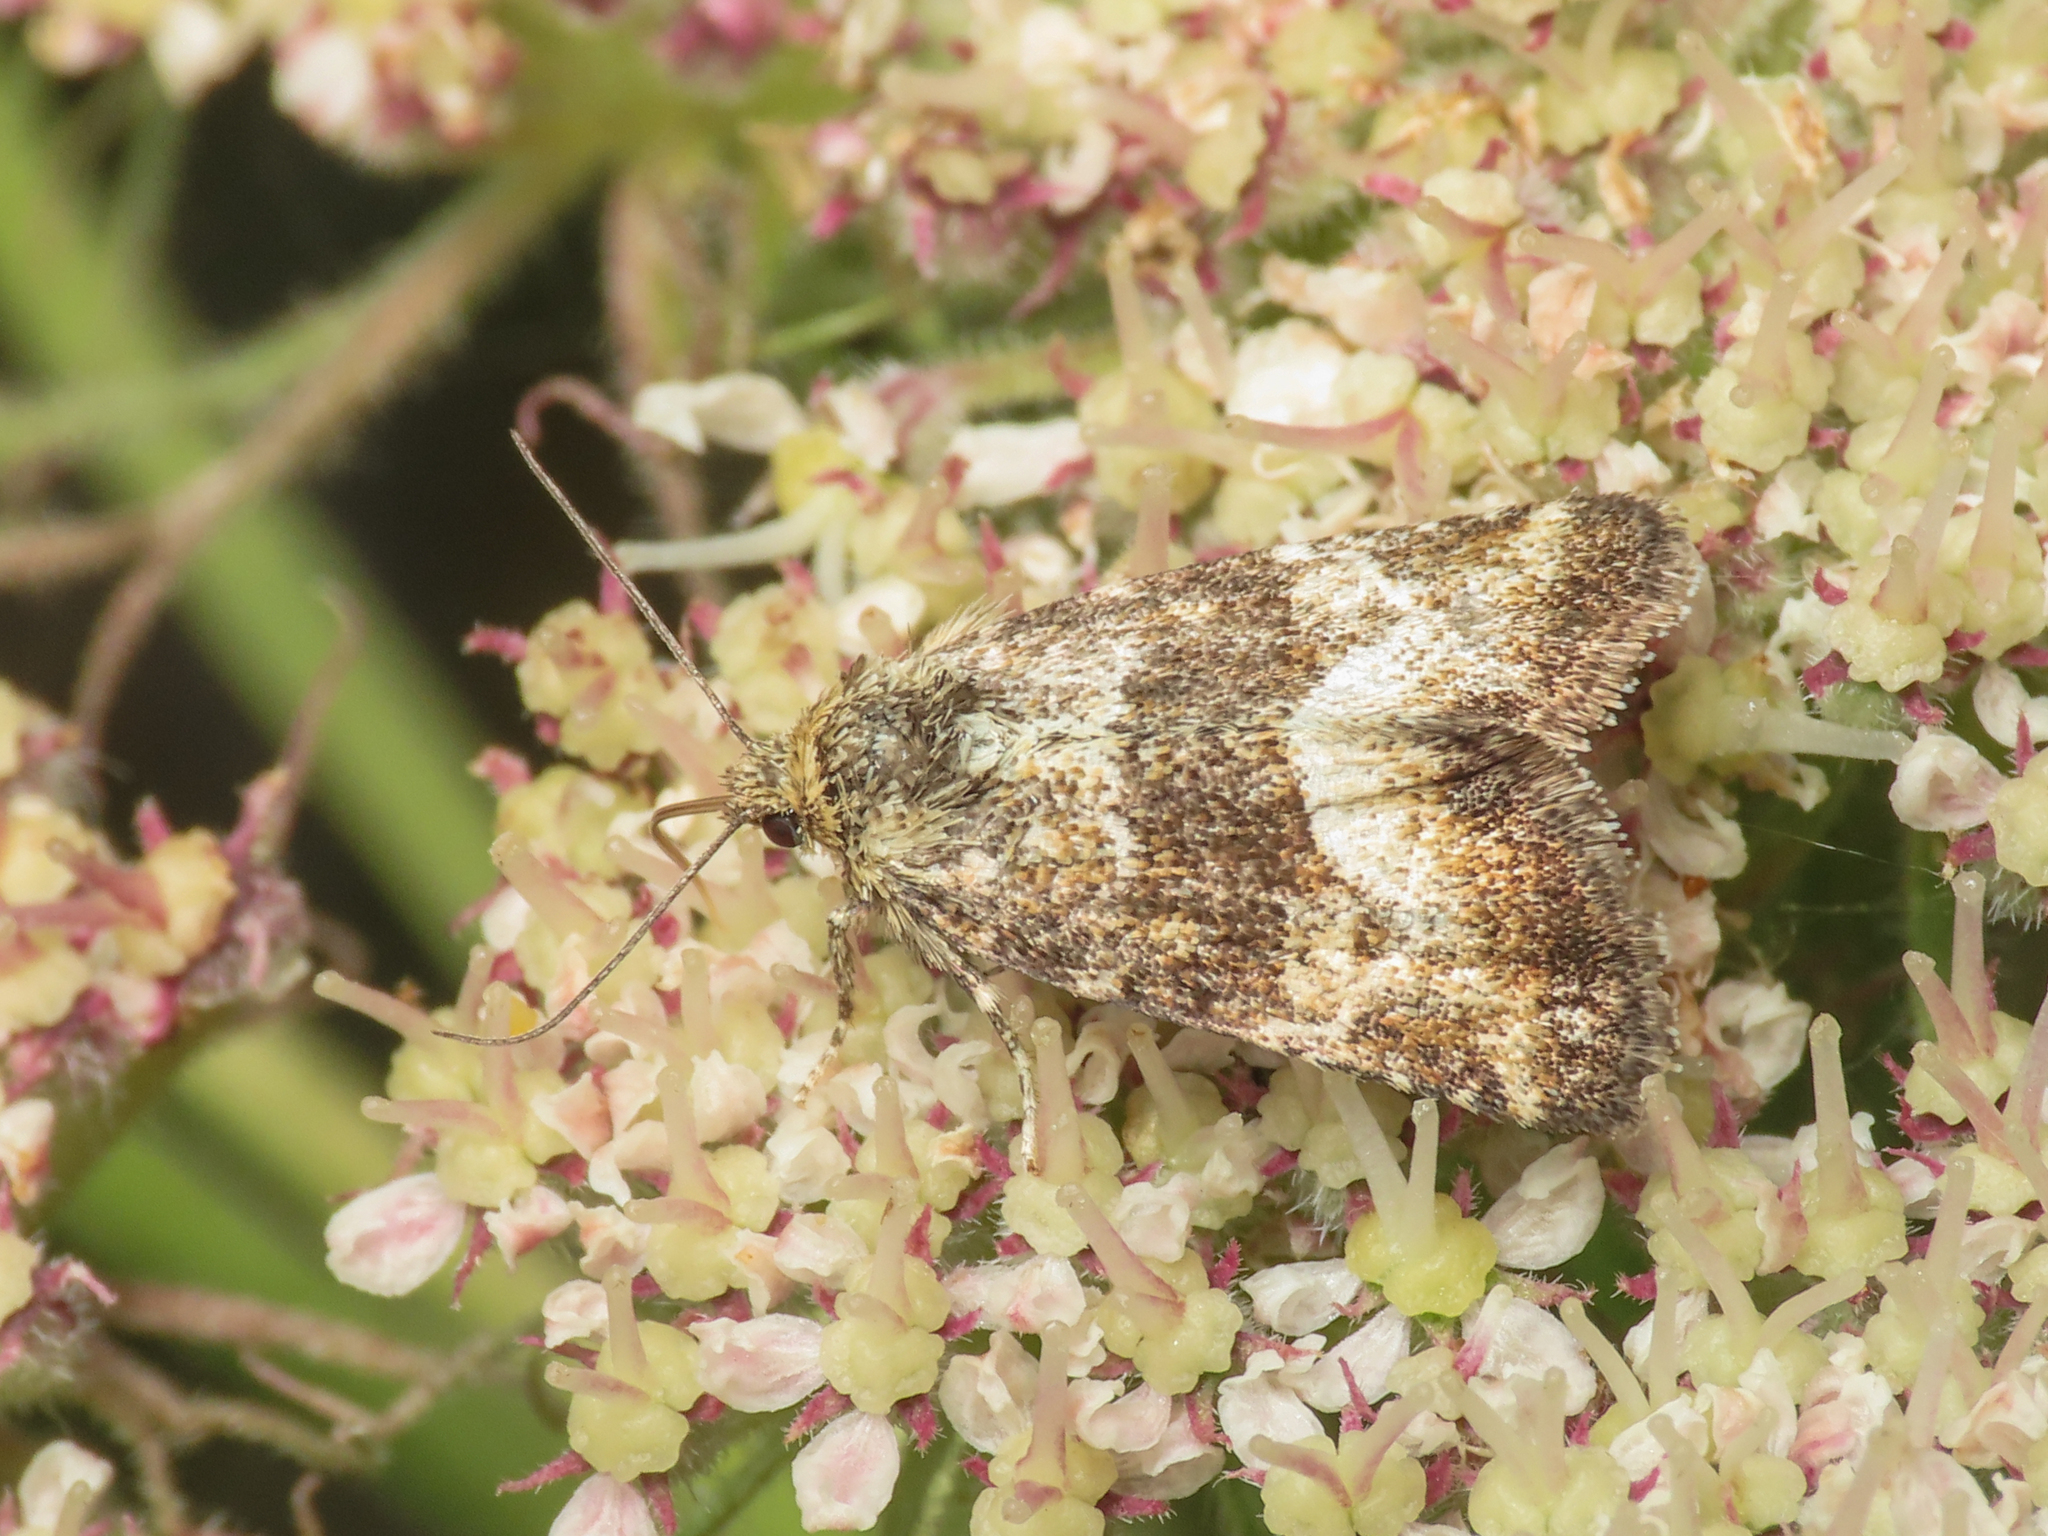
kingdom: Animalia
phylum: Arthropoda
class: Insecta
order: Lepidoptera
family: Noctuidae
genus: Photedes
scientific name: Photedes captiuncula
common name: Least minor
